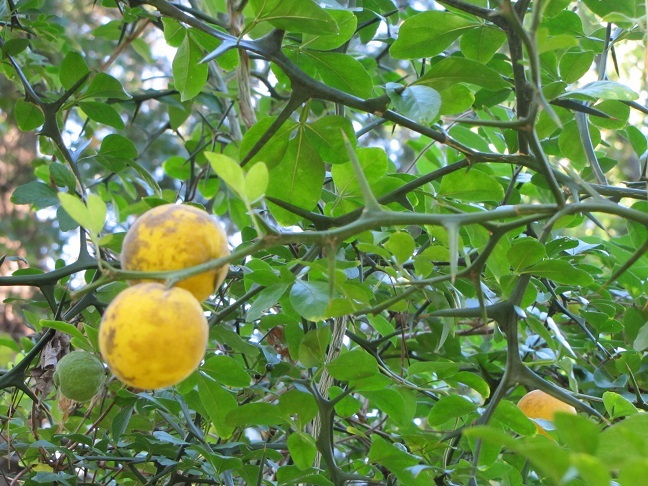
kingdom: Plantae
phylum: Tracheophyta
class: Magnoliopsida
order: Sapindales
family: Rutaceae
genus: Citrus
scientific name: Citrus trifoliata
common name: Japanese bitter-orange
